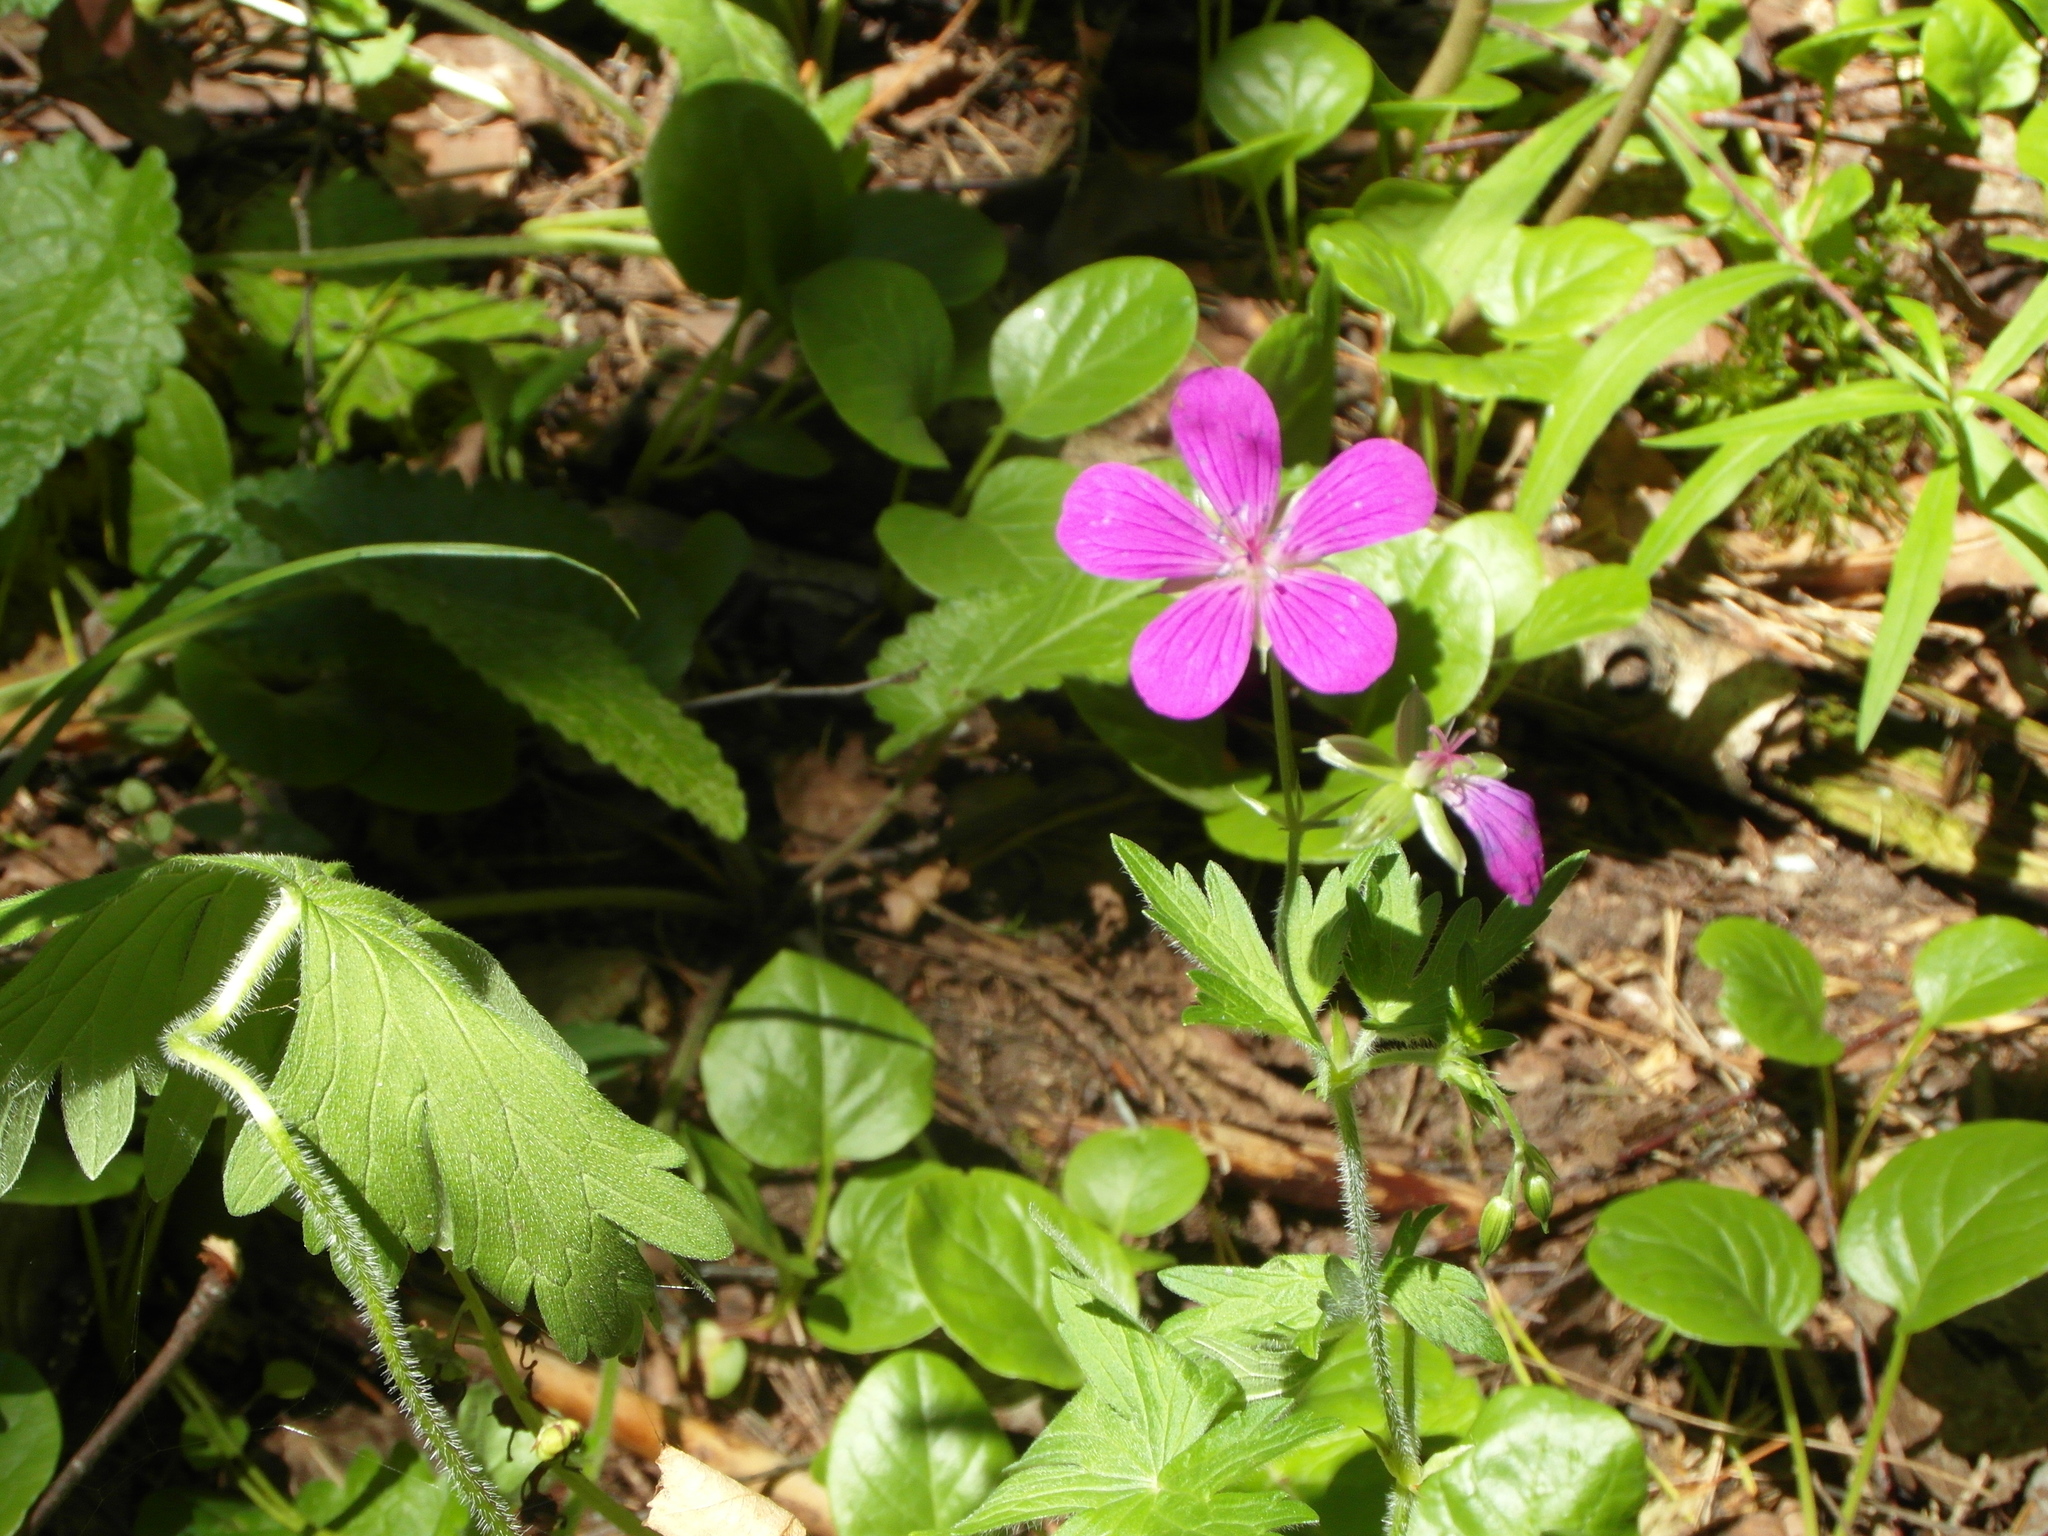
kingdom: Plantae
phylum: Tracheophyta
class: Magnoliopsida
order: Geraniales
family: Geraniaceae
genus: Geranium
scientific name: Geranium palustre
